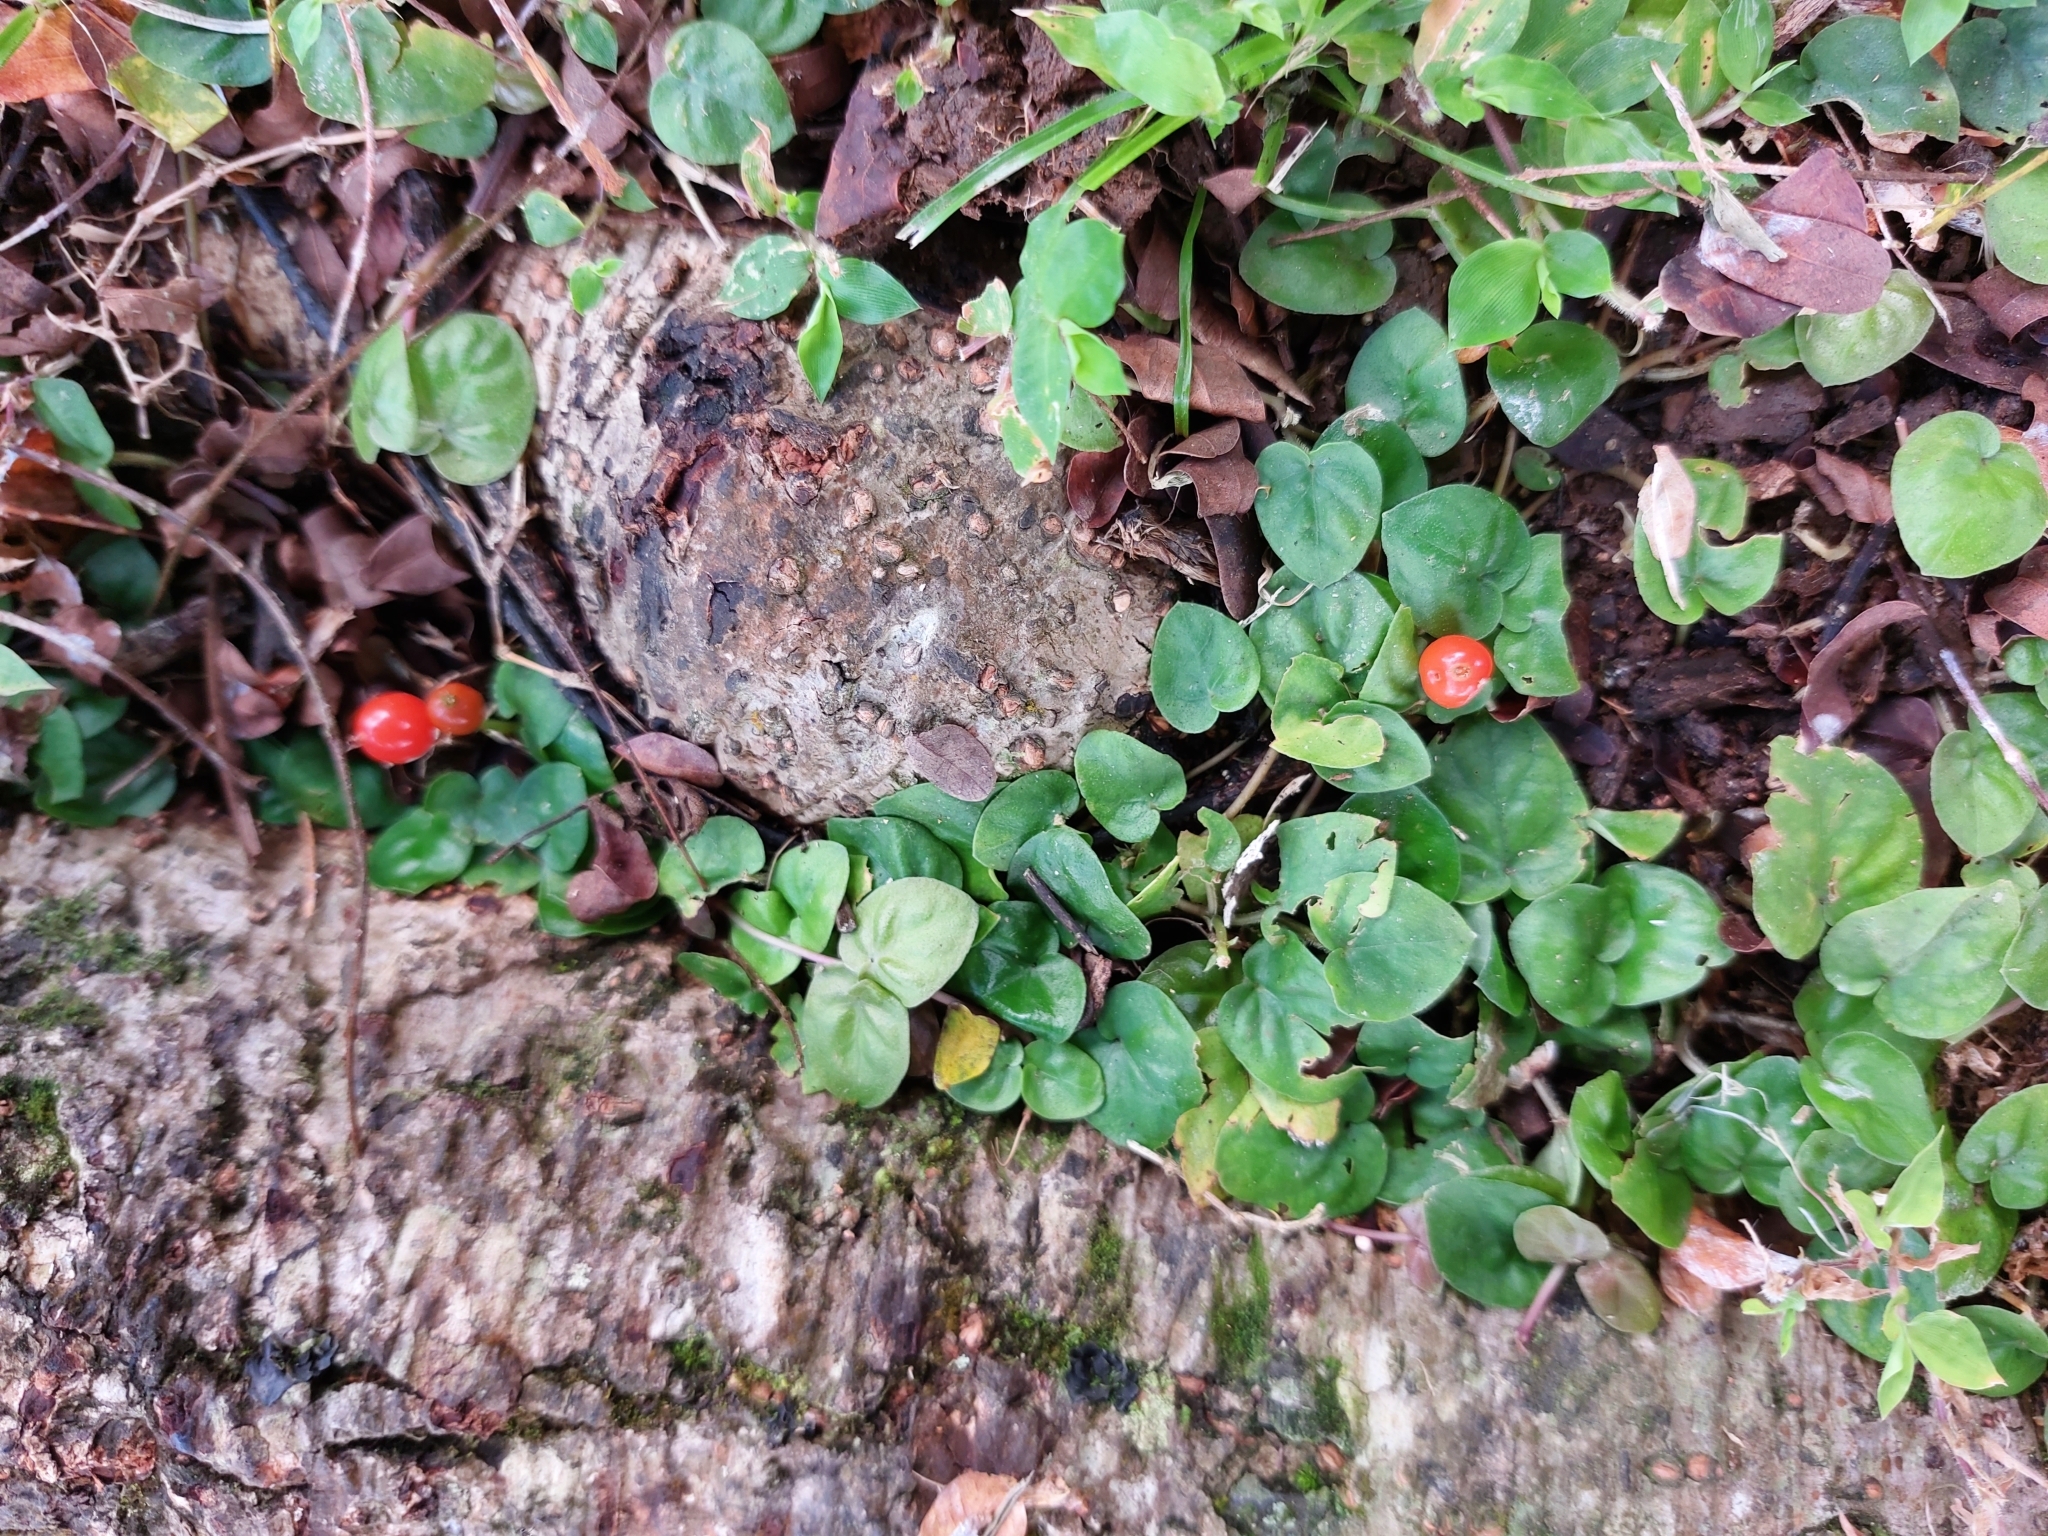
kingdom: Plantae
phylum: Tracheophyta
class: Magnoliopsida
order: Gentianales
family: Rubiaceae
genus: Geophila
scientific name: Geophila repens
